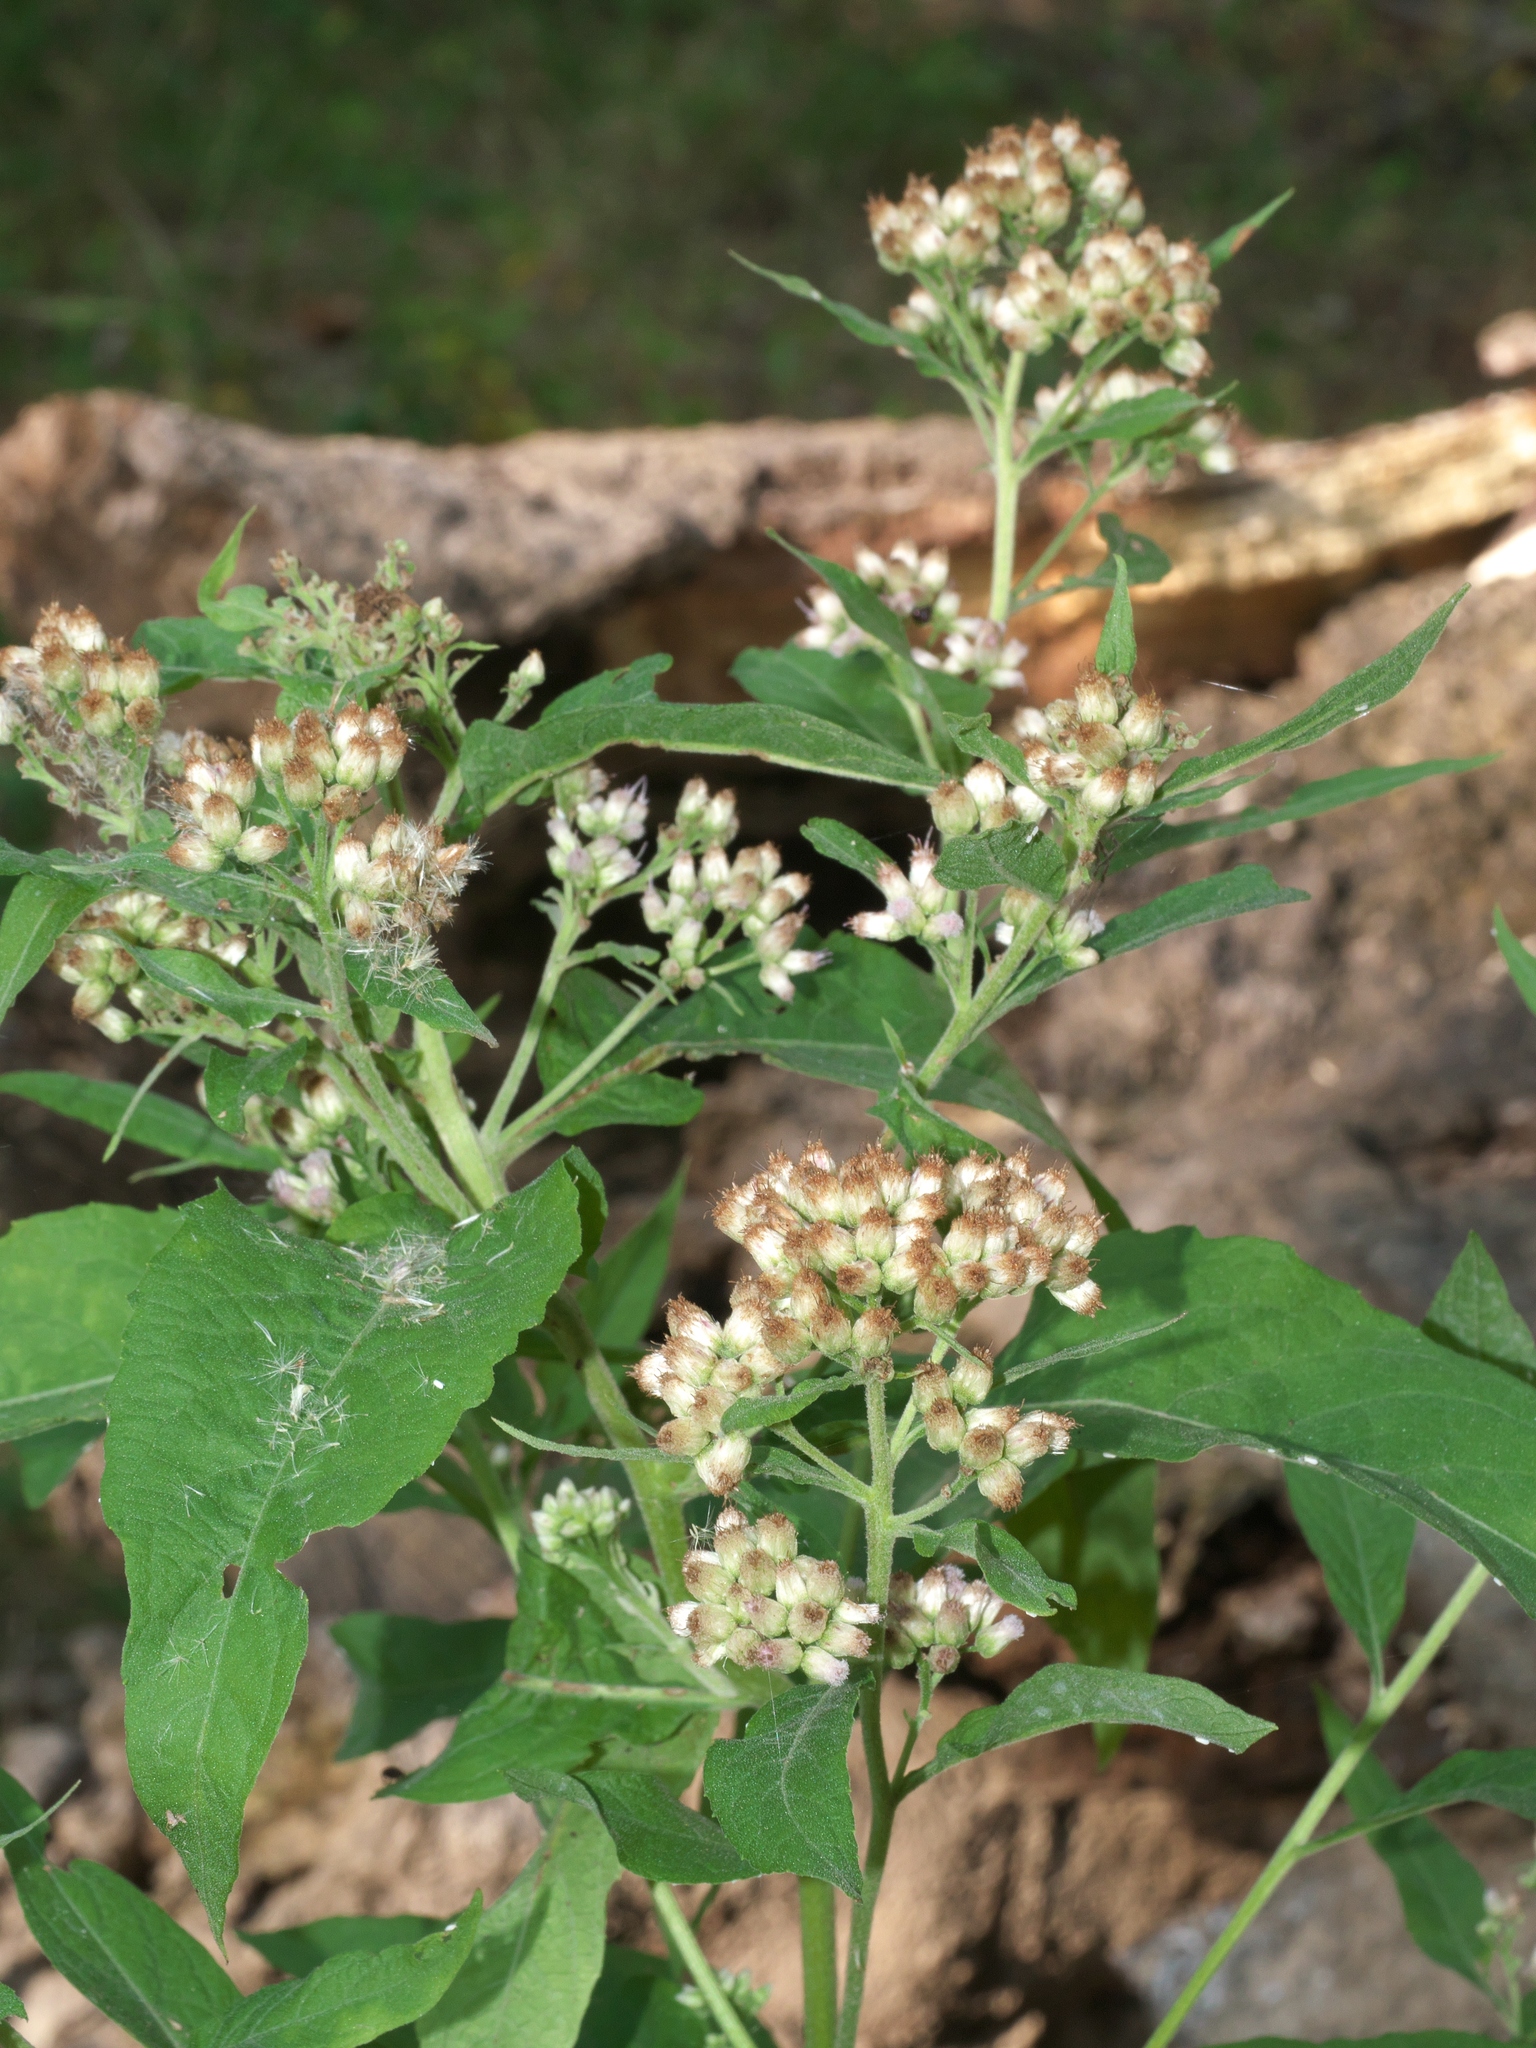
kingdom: Plantae
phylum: Tracheophyta
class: Magnoliopsida
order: Asterales
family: Asteraceae
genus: Pluchea
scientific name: Pluchea camphorata
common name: Camphor pluchea
